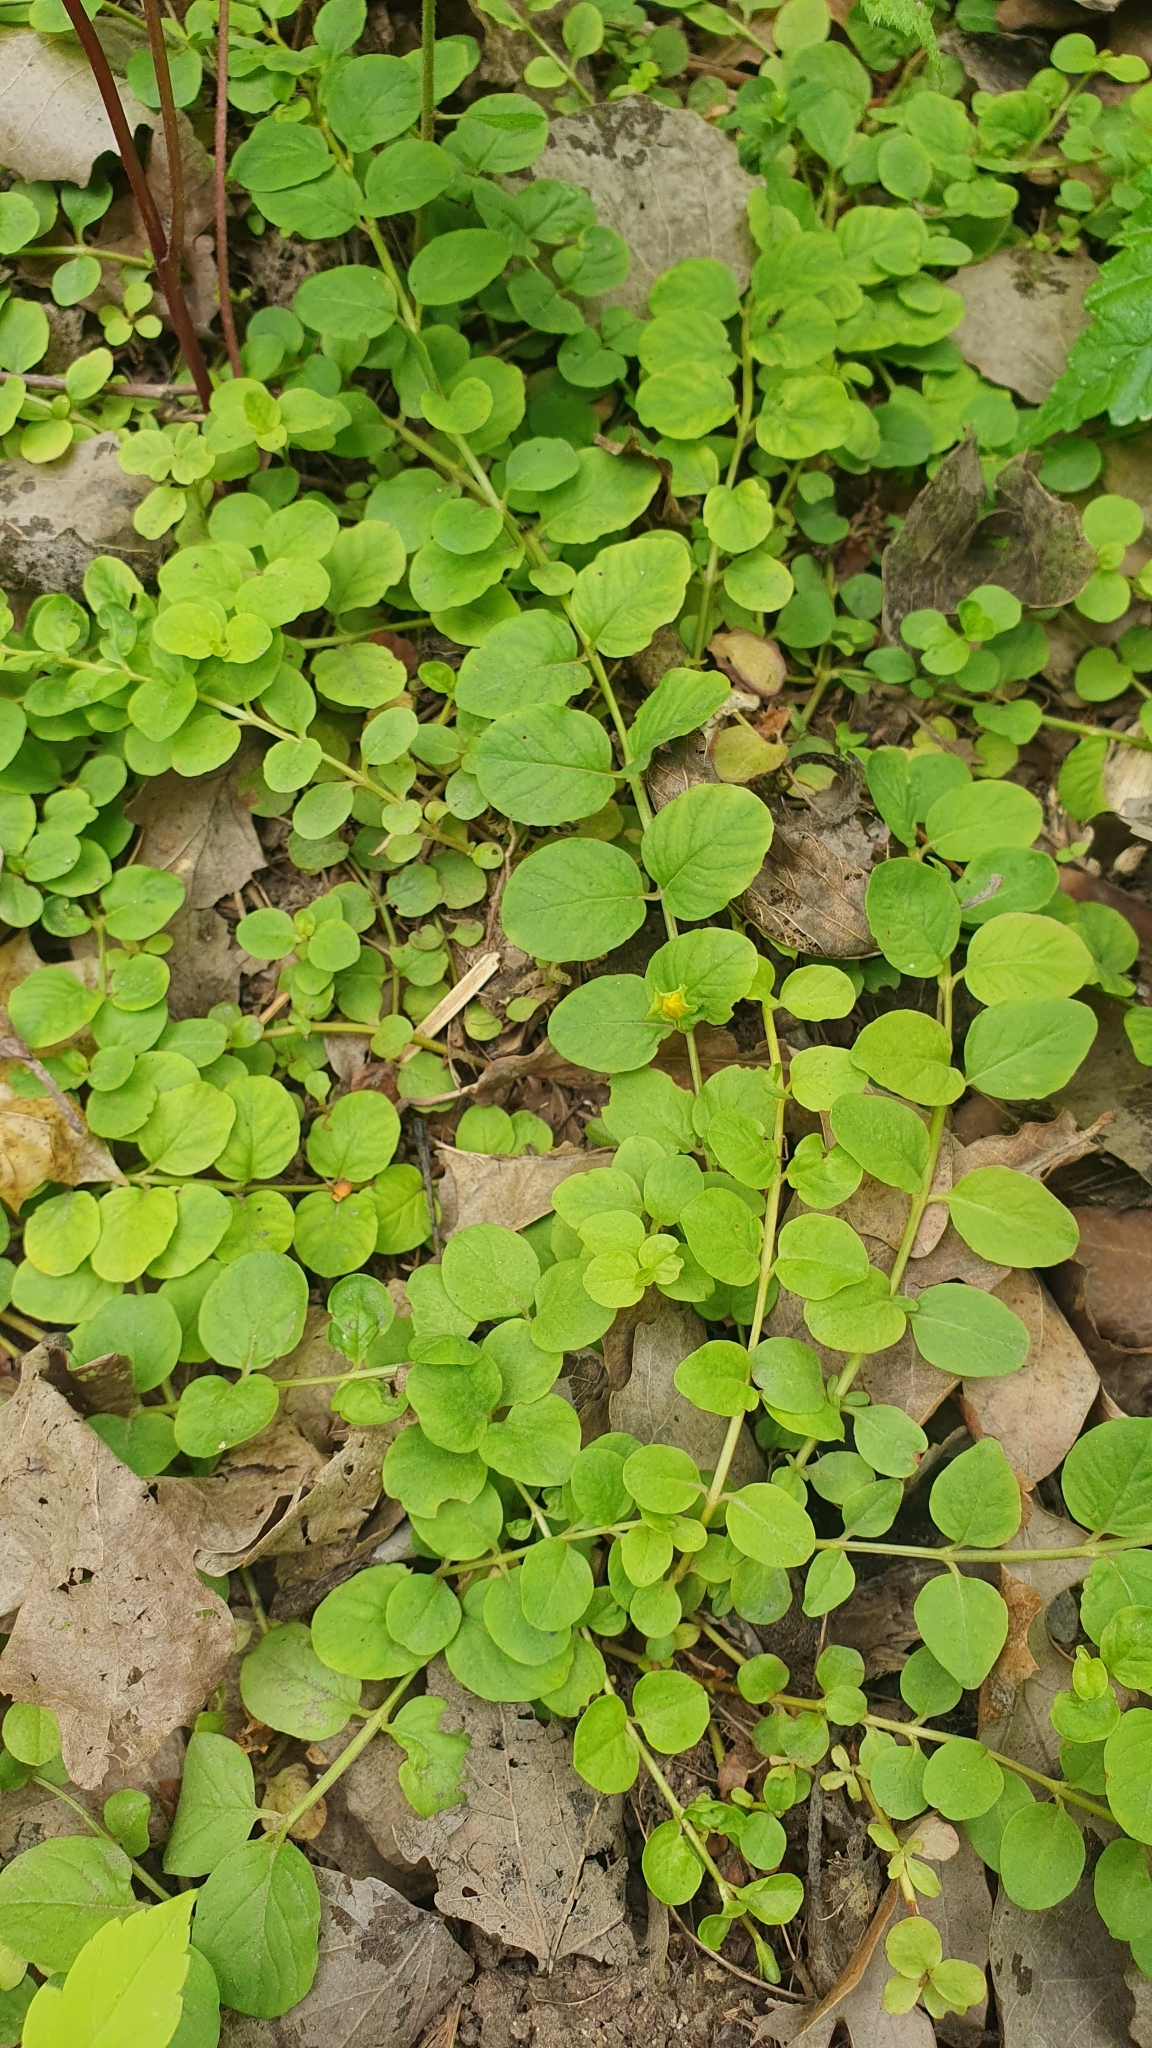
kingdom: Plantae
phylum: Tracheophyta
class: Magnoliopsida
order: Ericales
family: Primulaceae
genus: Lysimachia
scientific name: Lysimachia nummularia
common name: Moneywort
